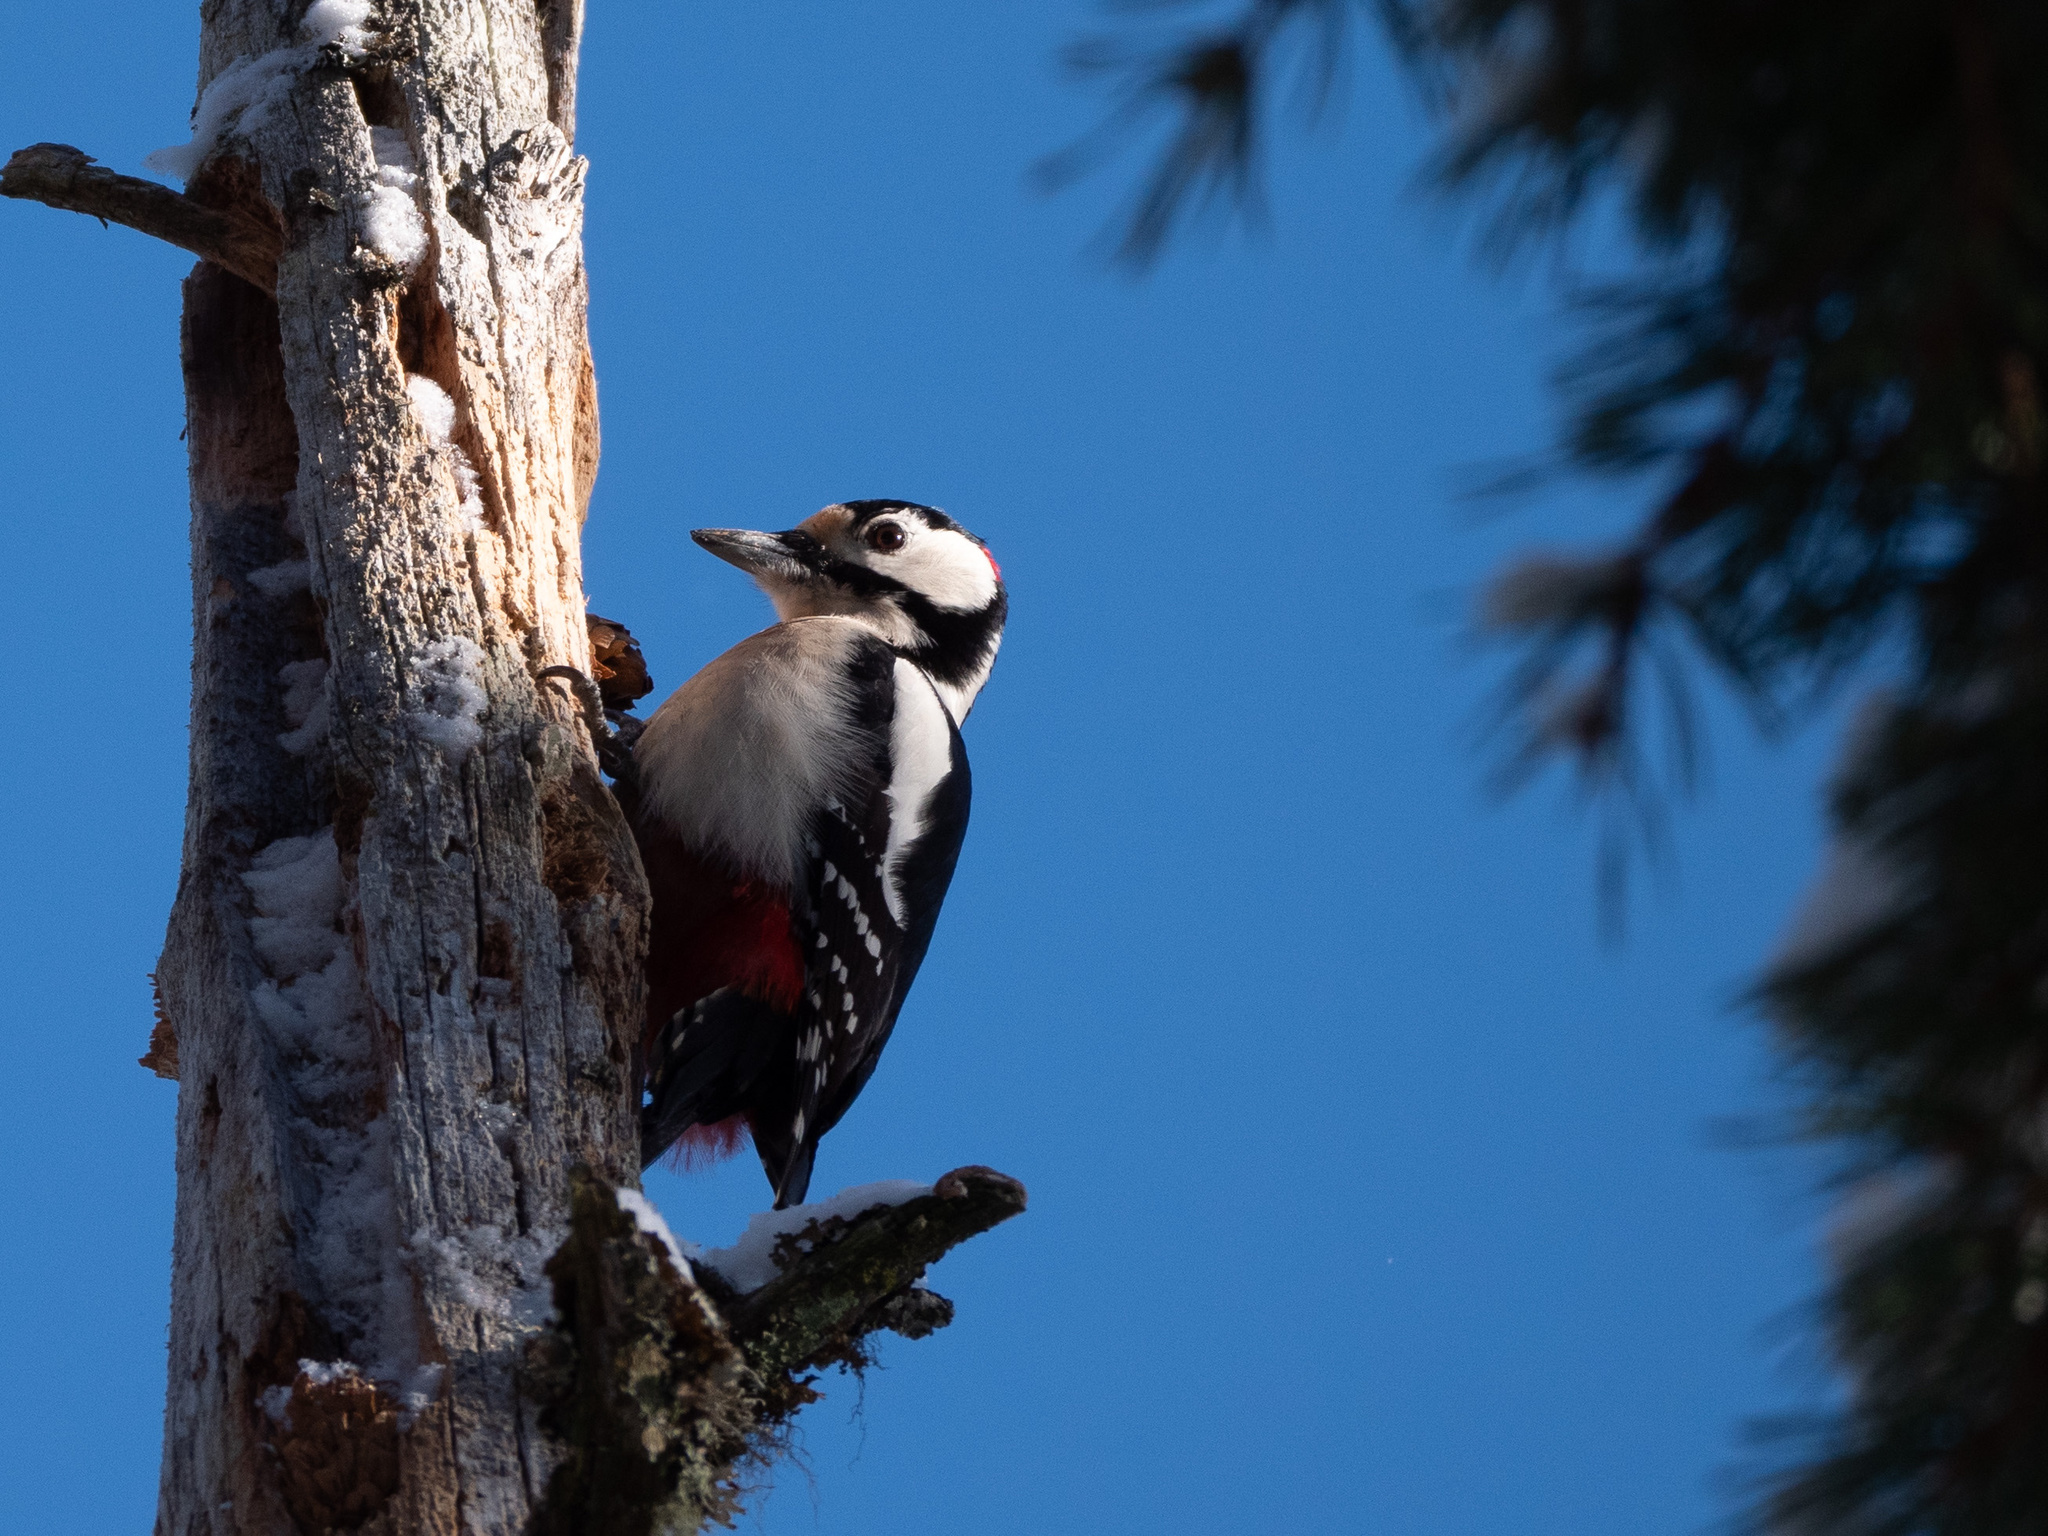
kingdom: Animalia
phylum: Chordata
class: Aves
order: Piciformes
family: Picidae
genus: Dendrocopos
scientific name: Dendrocopos major
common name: Great spotted woodpecker
